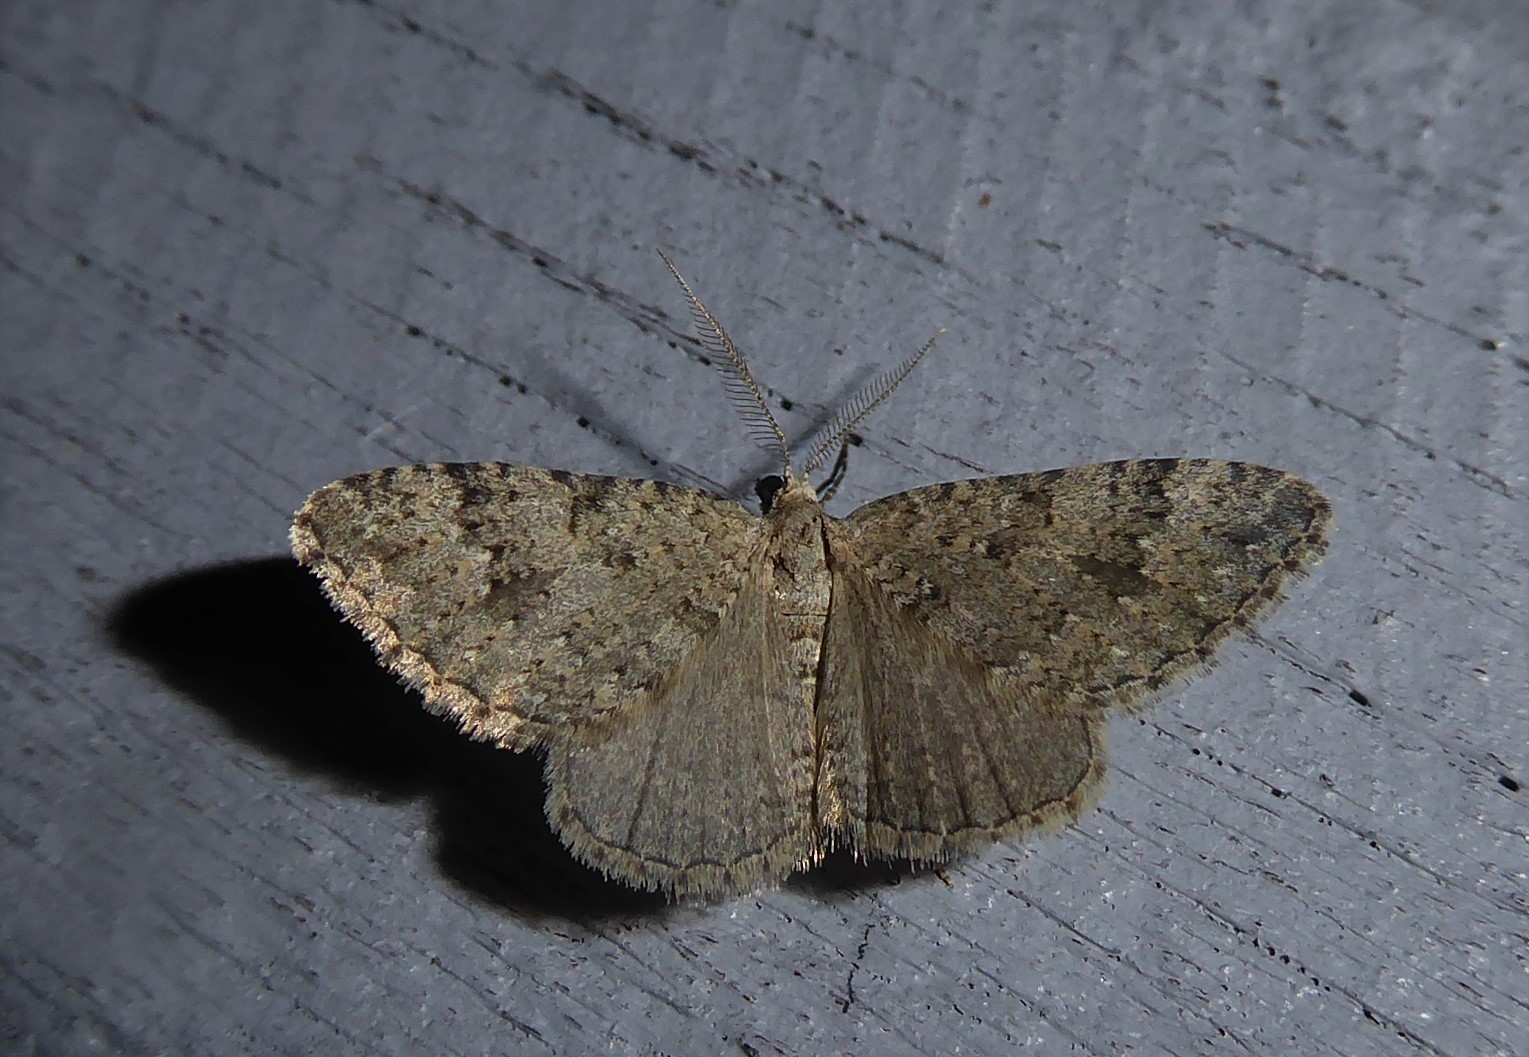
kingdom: Animalia
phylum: Arthropoda
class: Insecta
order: Lepidoptera
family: Geometridae
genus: Helastia
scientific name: Helastia corcularia
